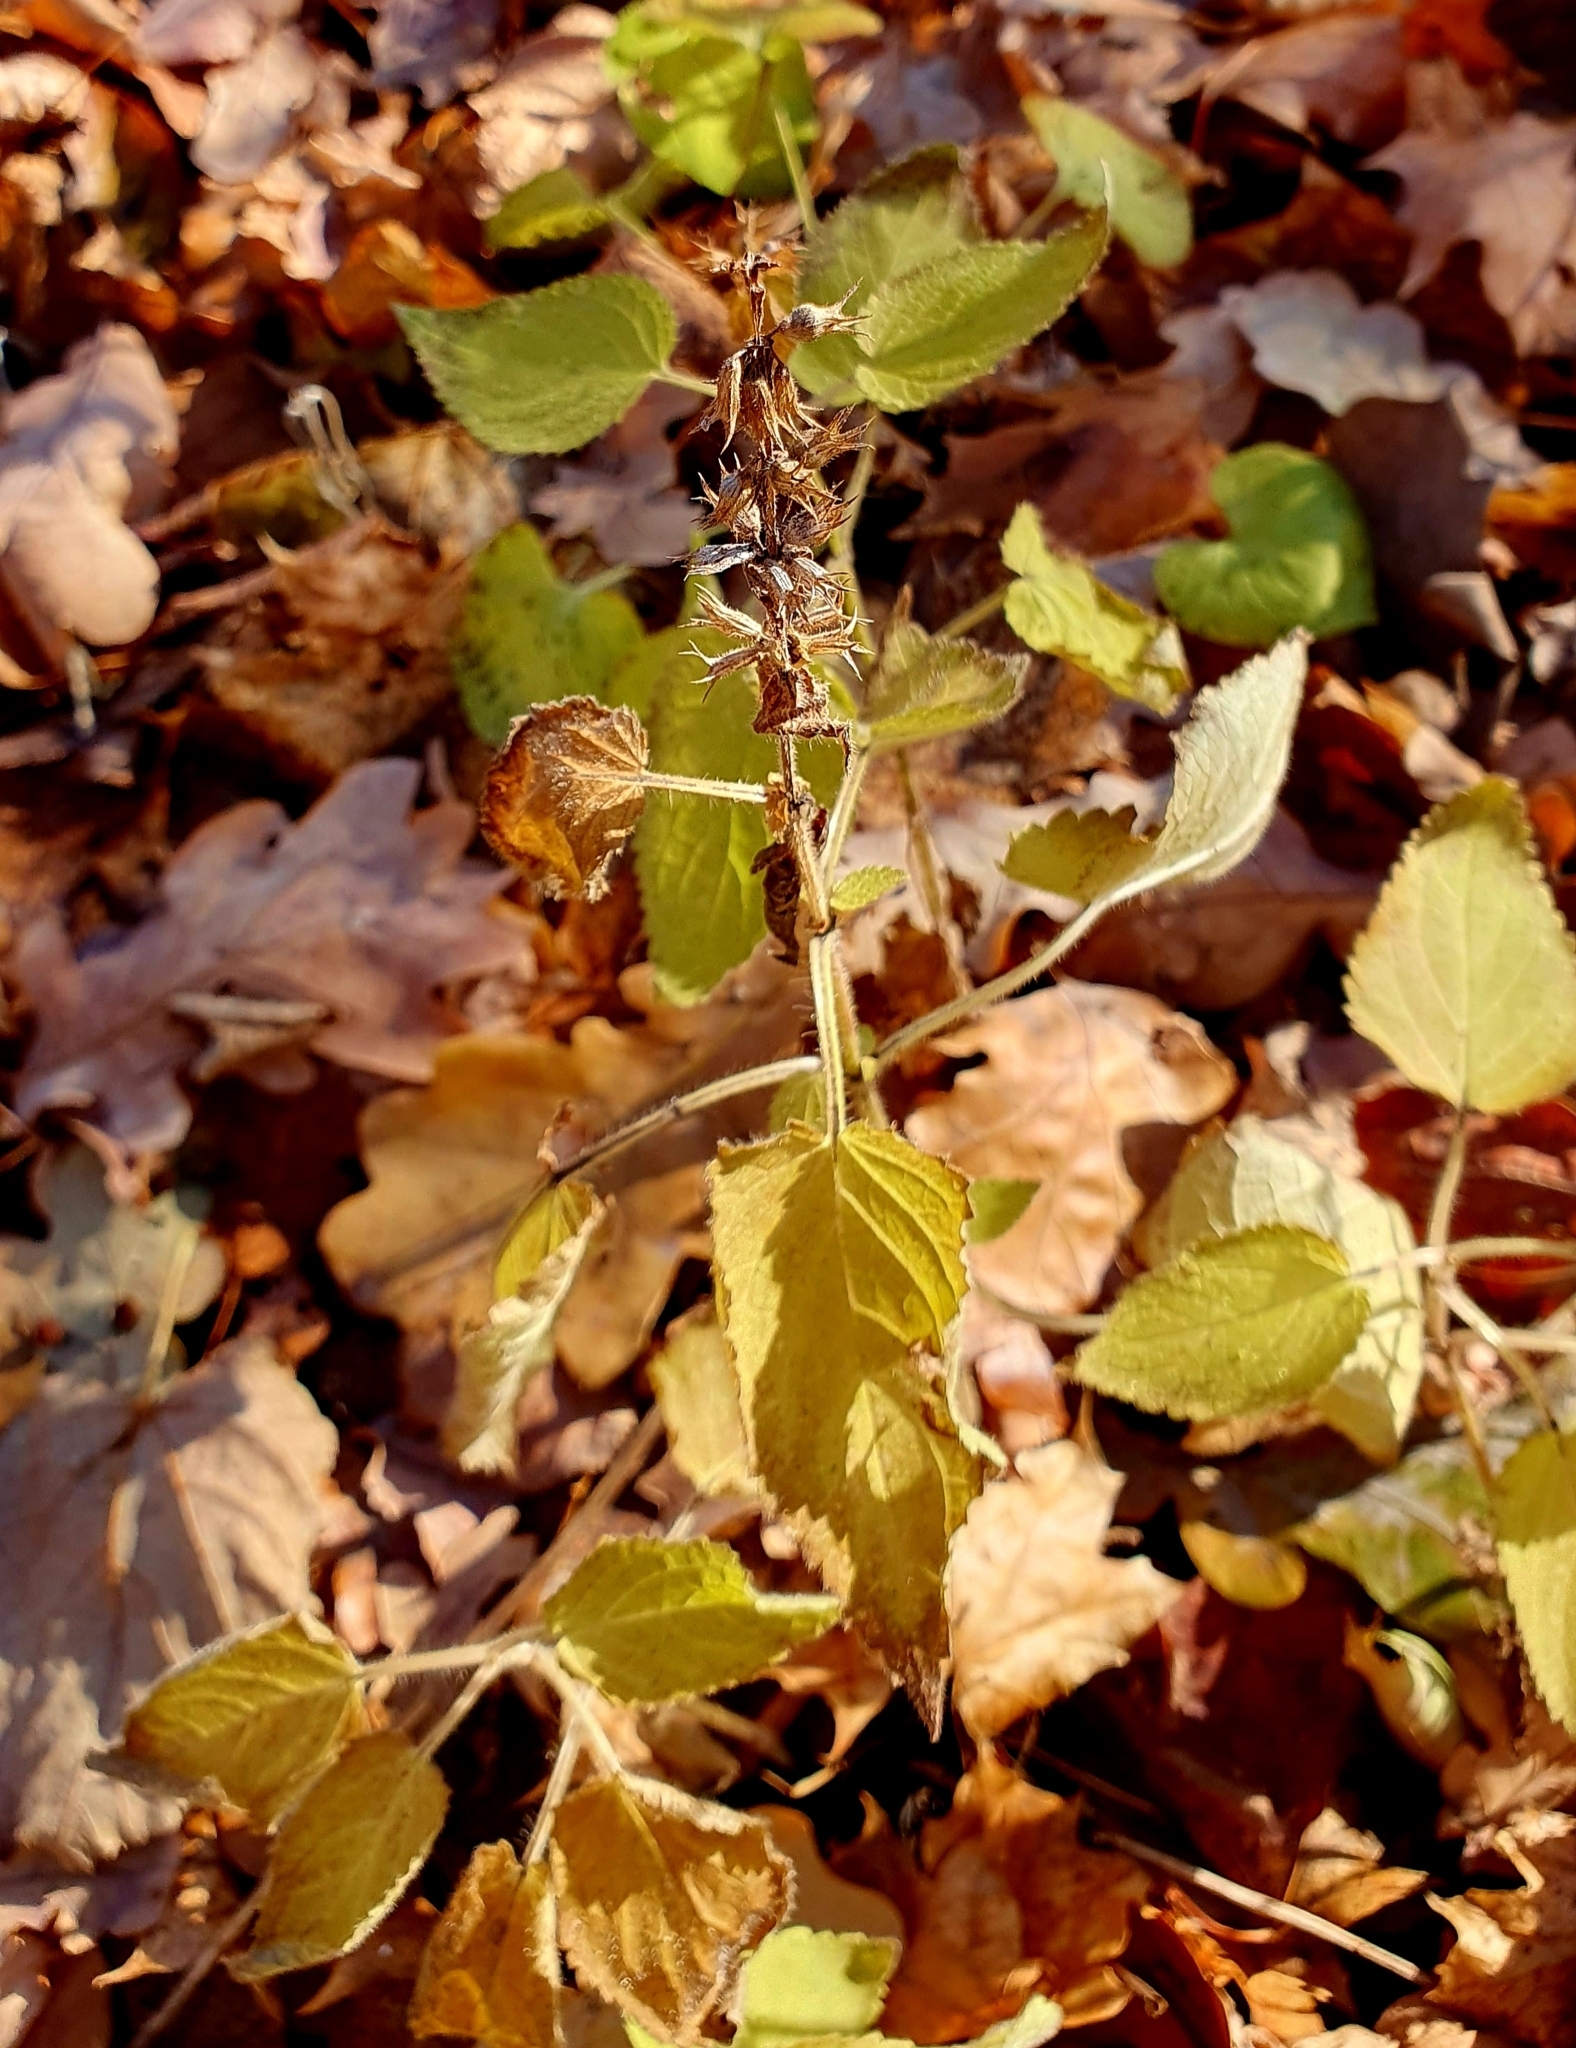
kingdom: Plantae
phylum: Tracheophyta
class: Magnoliopsida
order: Lamiales
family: Lamiaceae
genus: Stachys
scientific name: Stachys sylvatica
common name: Hedge woundwort
